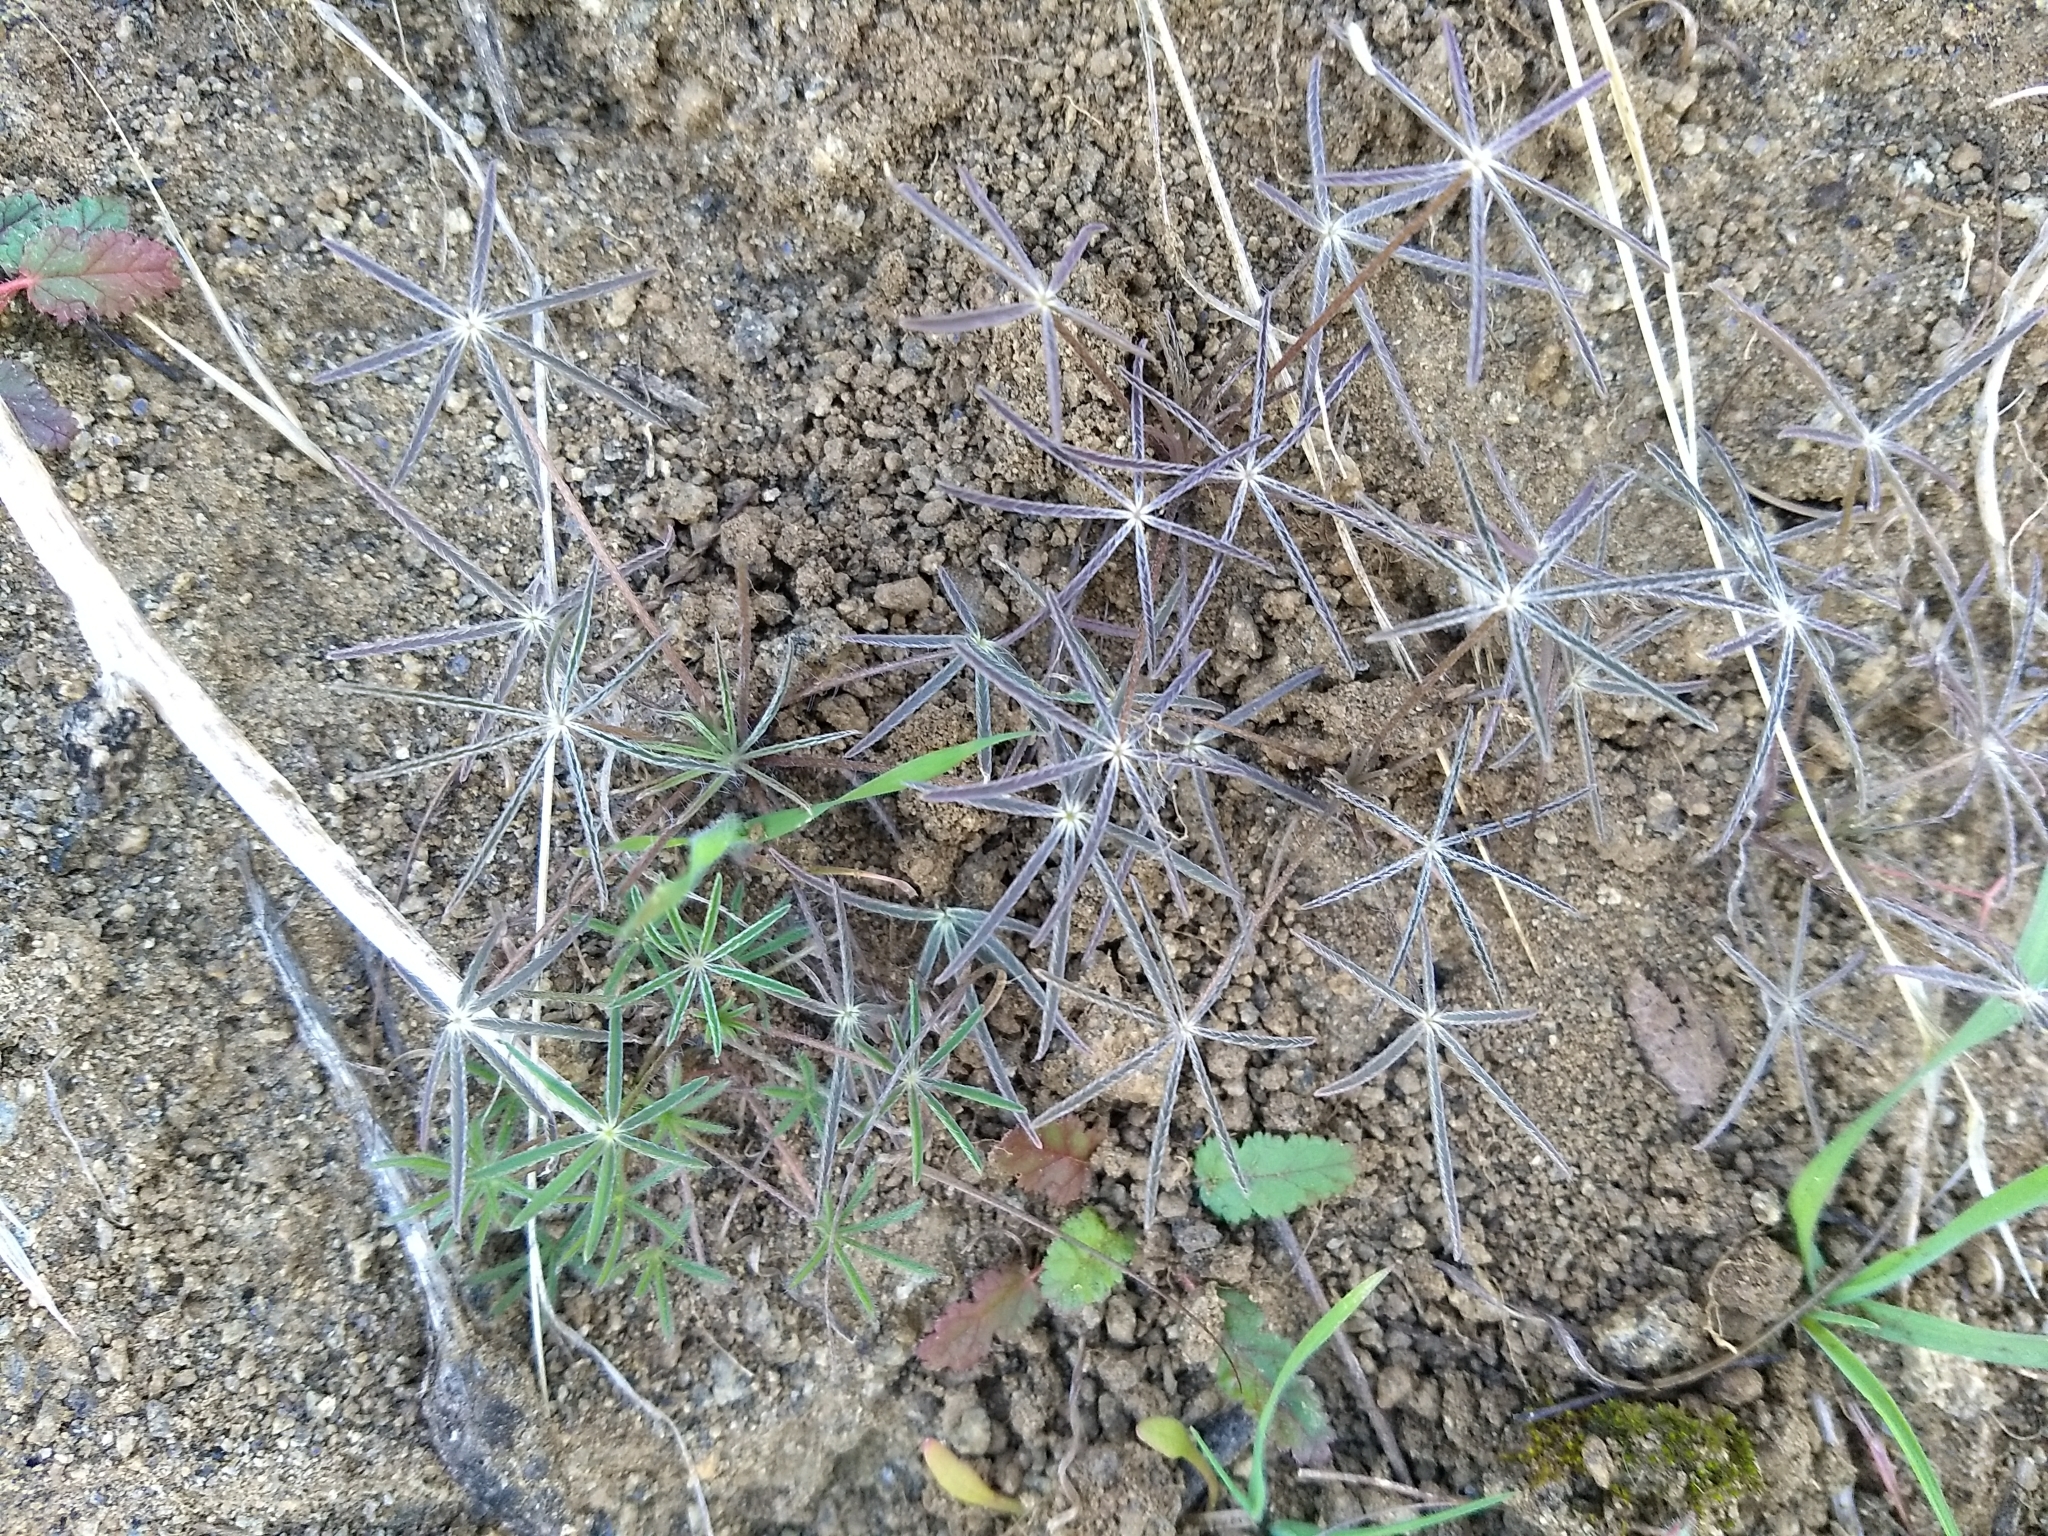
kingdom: Plantae
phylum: Tracheophyta
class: Magnoliopsida
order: Fabales
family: Fabaceae
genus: Lupinus
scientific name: Lupinus benthamii
